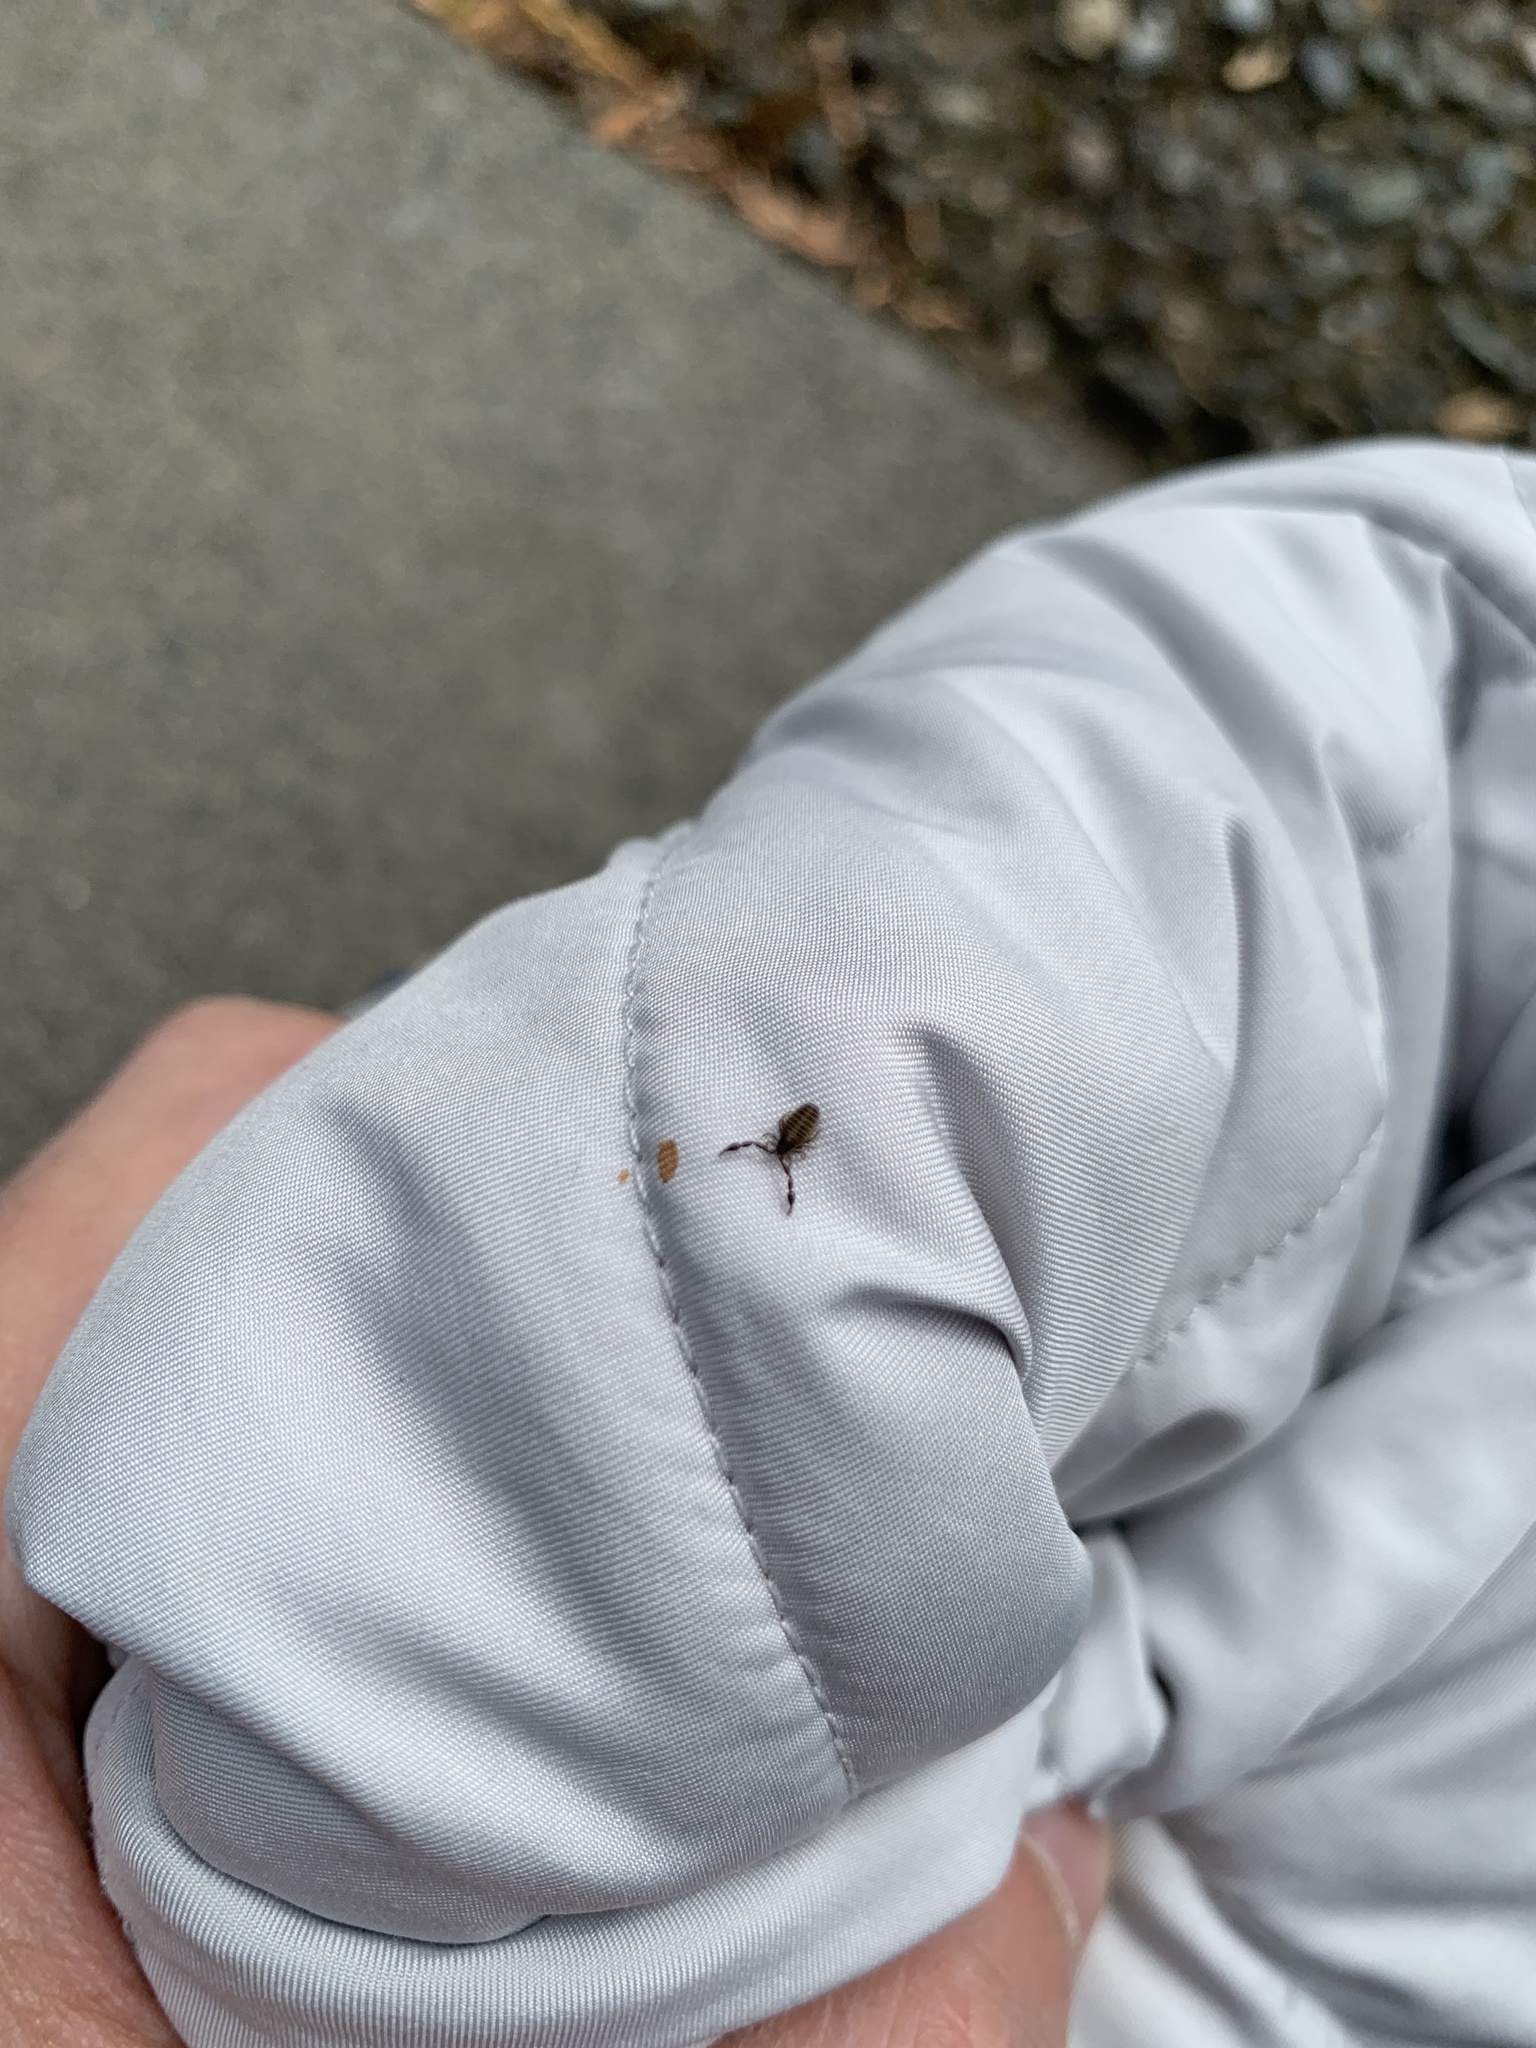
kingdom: Animalia
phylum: Arthropoda
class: Arachnida
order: Pseudoscorpiones
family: Cheliferidae
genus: Chelifer
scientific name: Chelifer cancroides
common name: House false-scorpion
